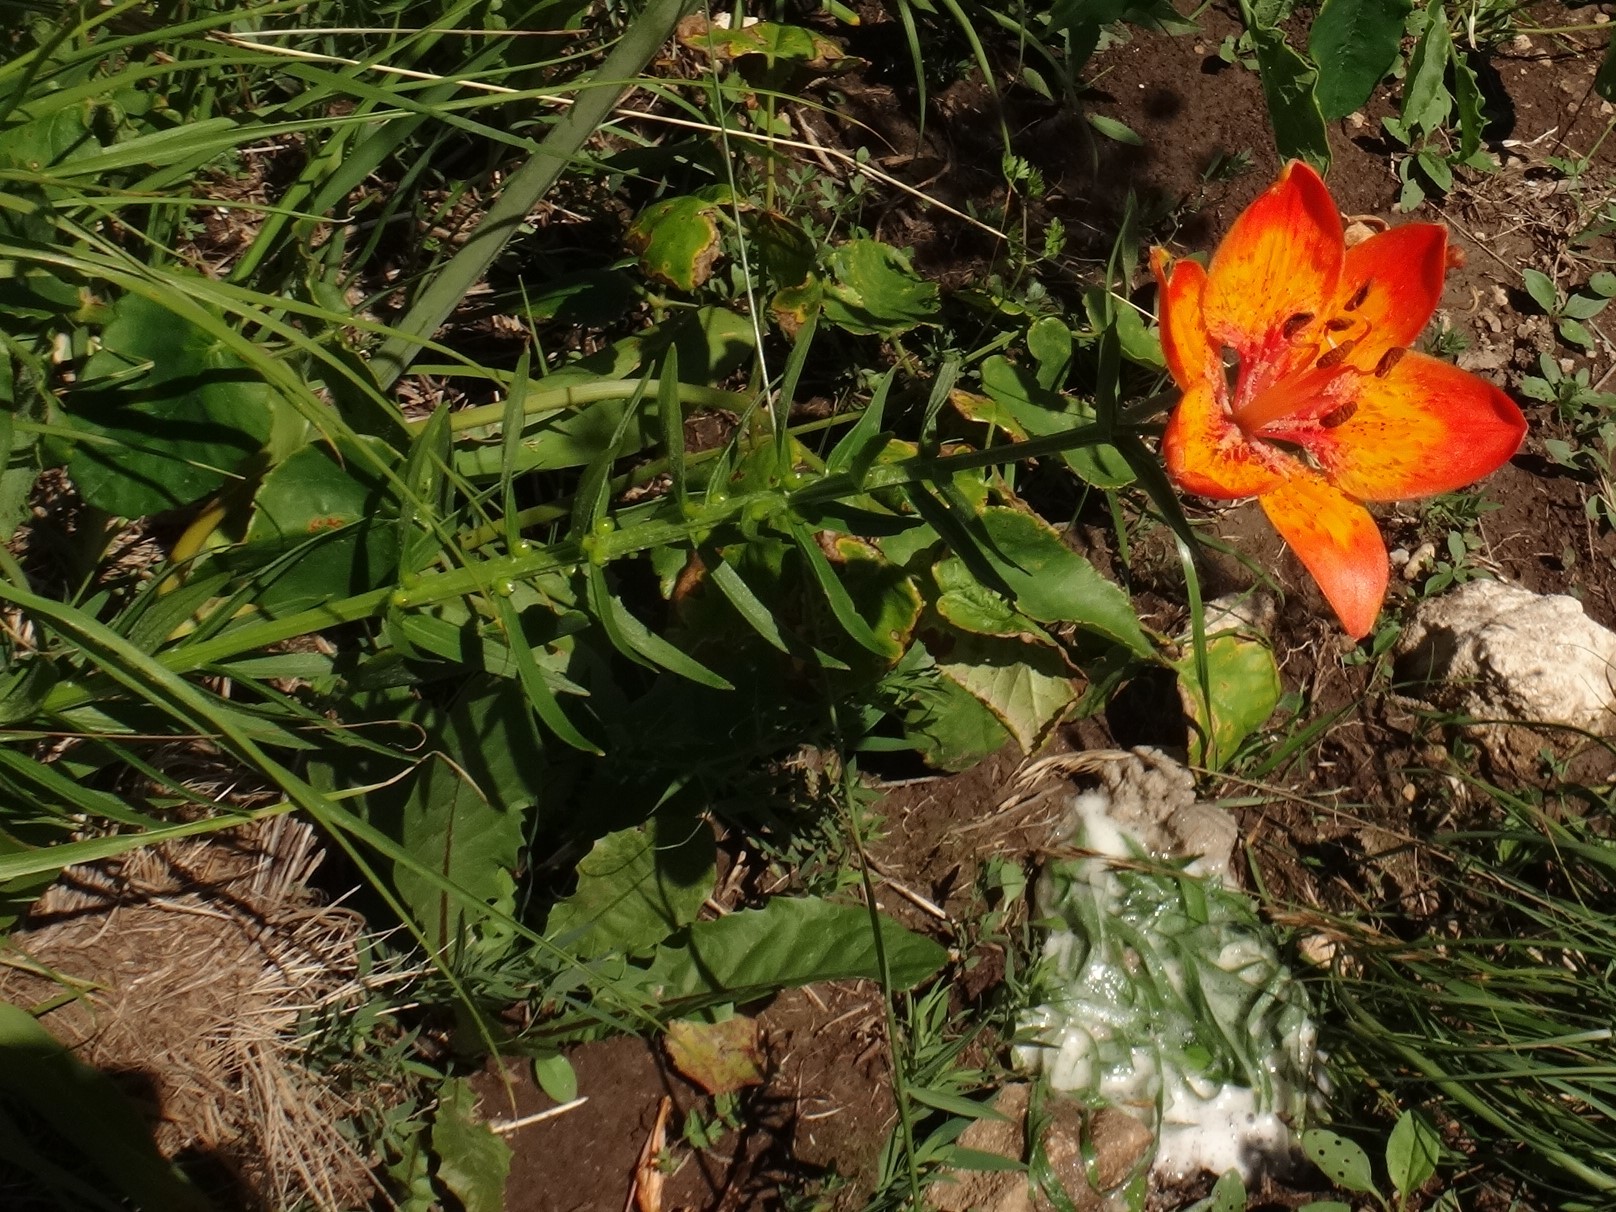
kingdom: Plantae
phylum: Tracheophyta
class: Liliopsida
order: Liliales
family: Liliaceae
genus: Lilium
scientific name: Lilium bulbiferum
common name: Orange lily
